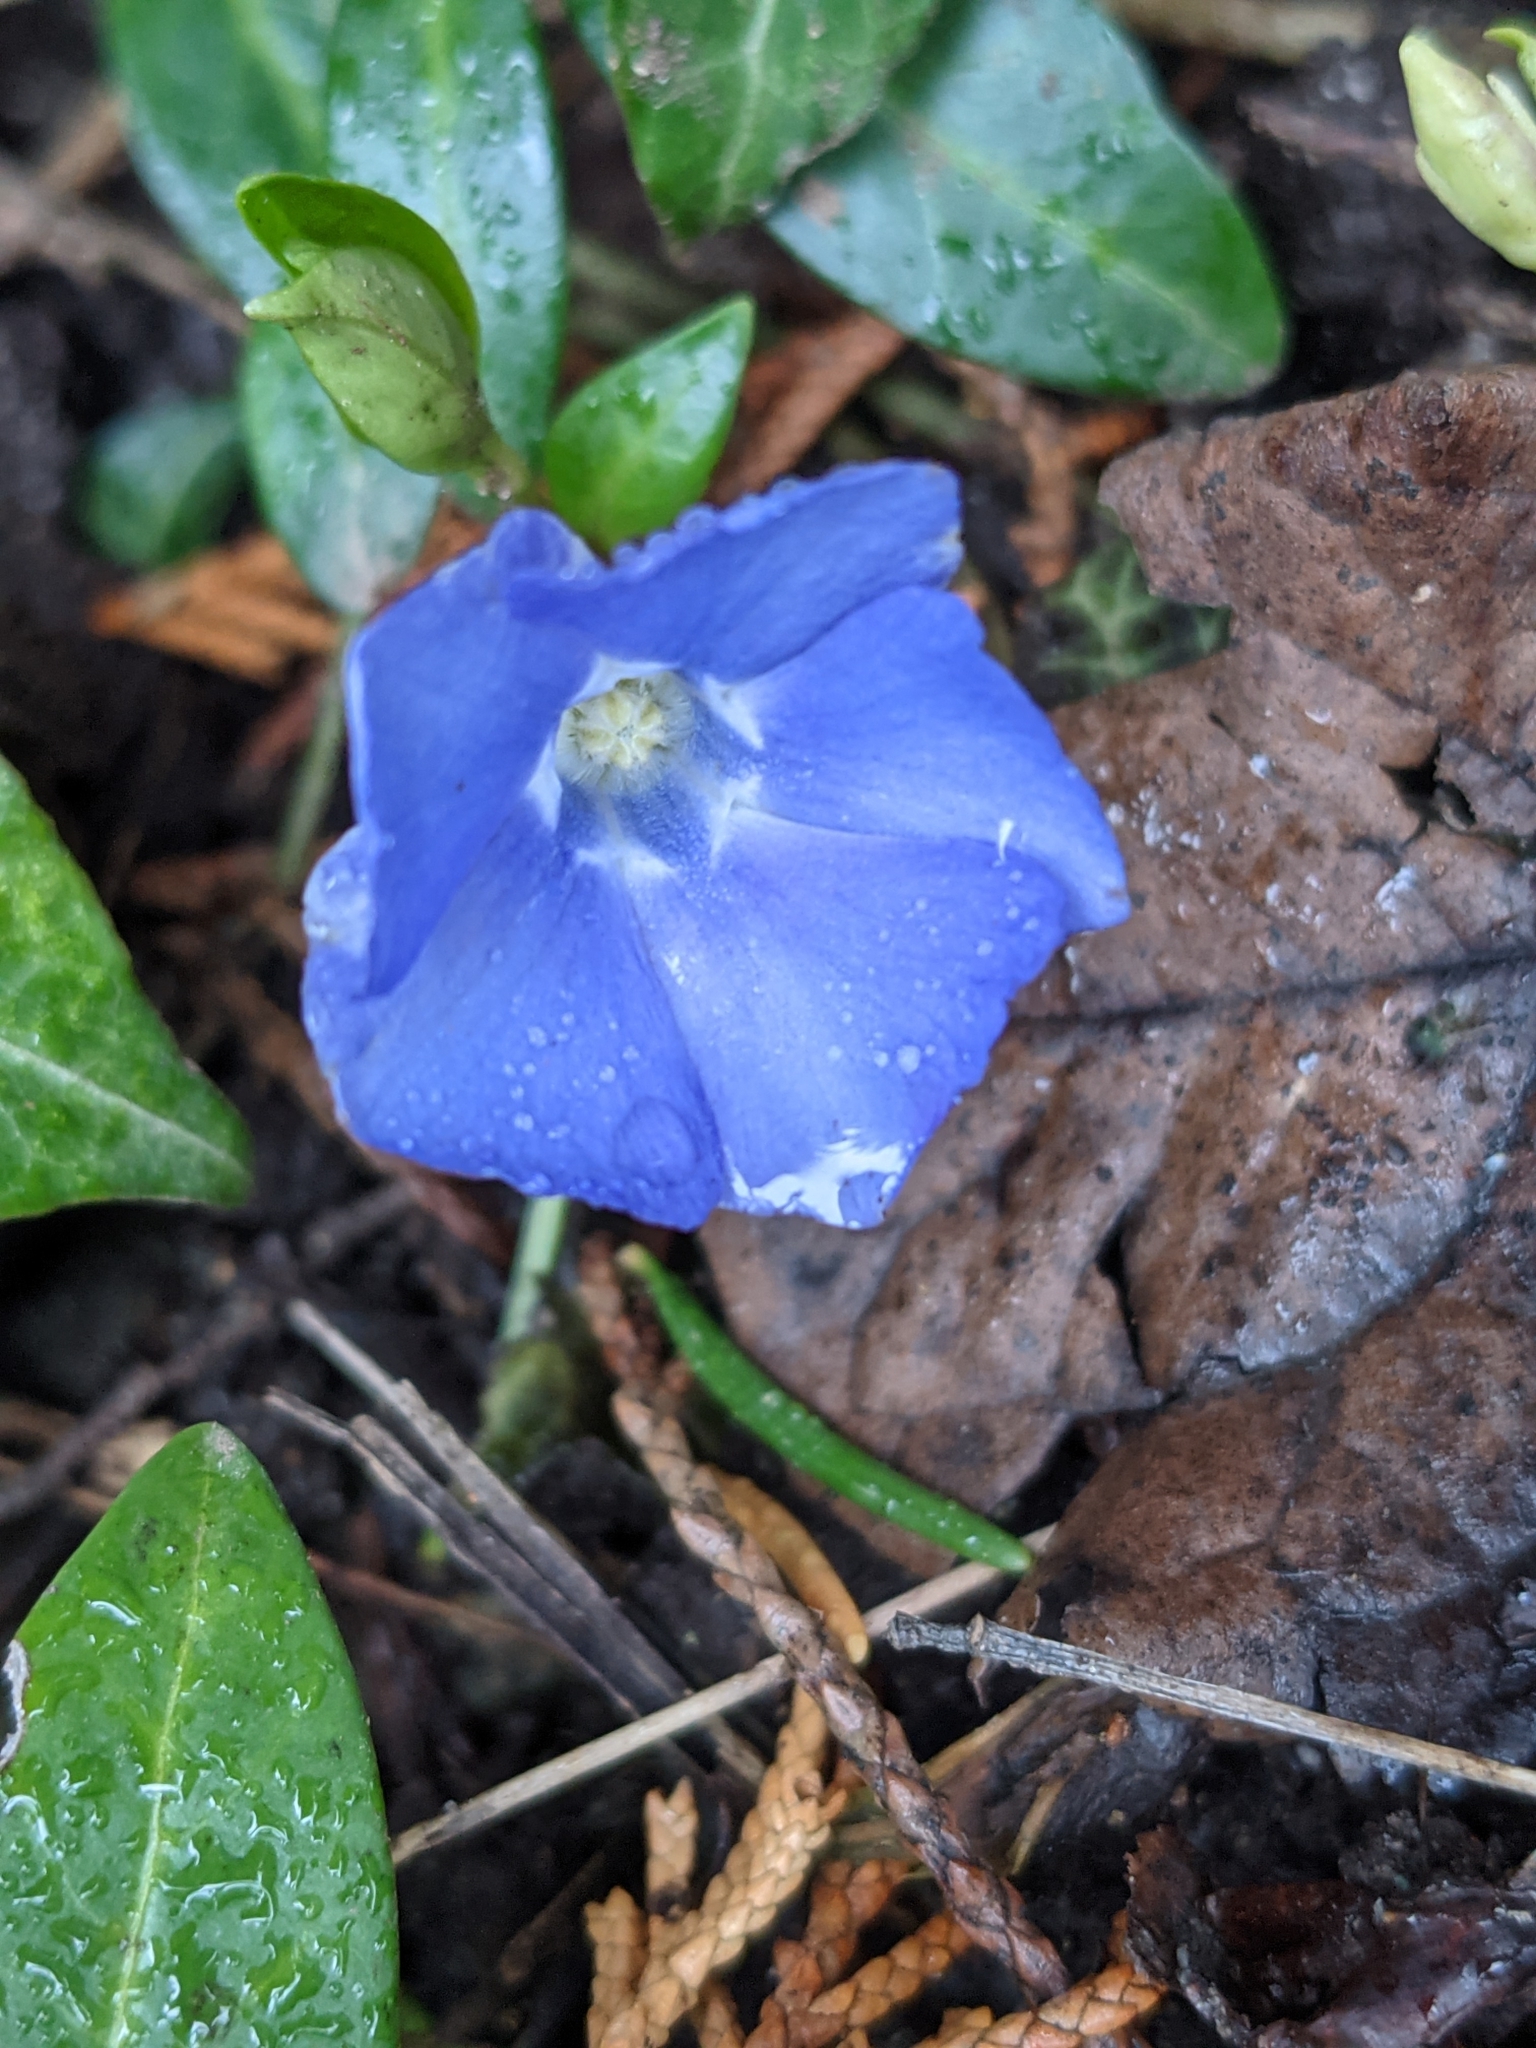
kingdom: Plantae
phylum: Tracheophyta
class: Magnoliopsida
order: Gentianales
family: Apocynaceae
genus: Vinca
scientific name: Vinca minor
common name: Lesser periwinkle
